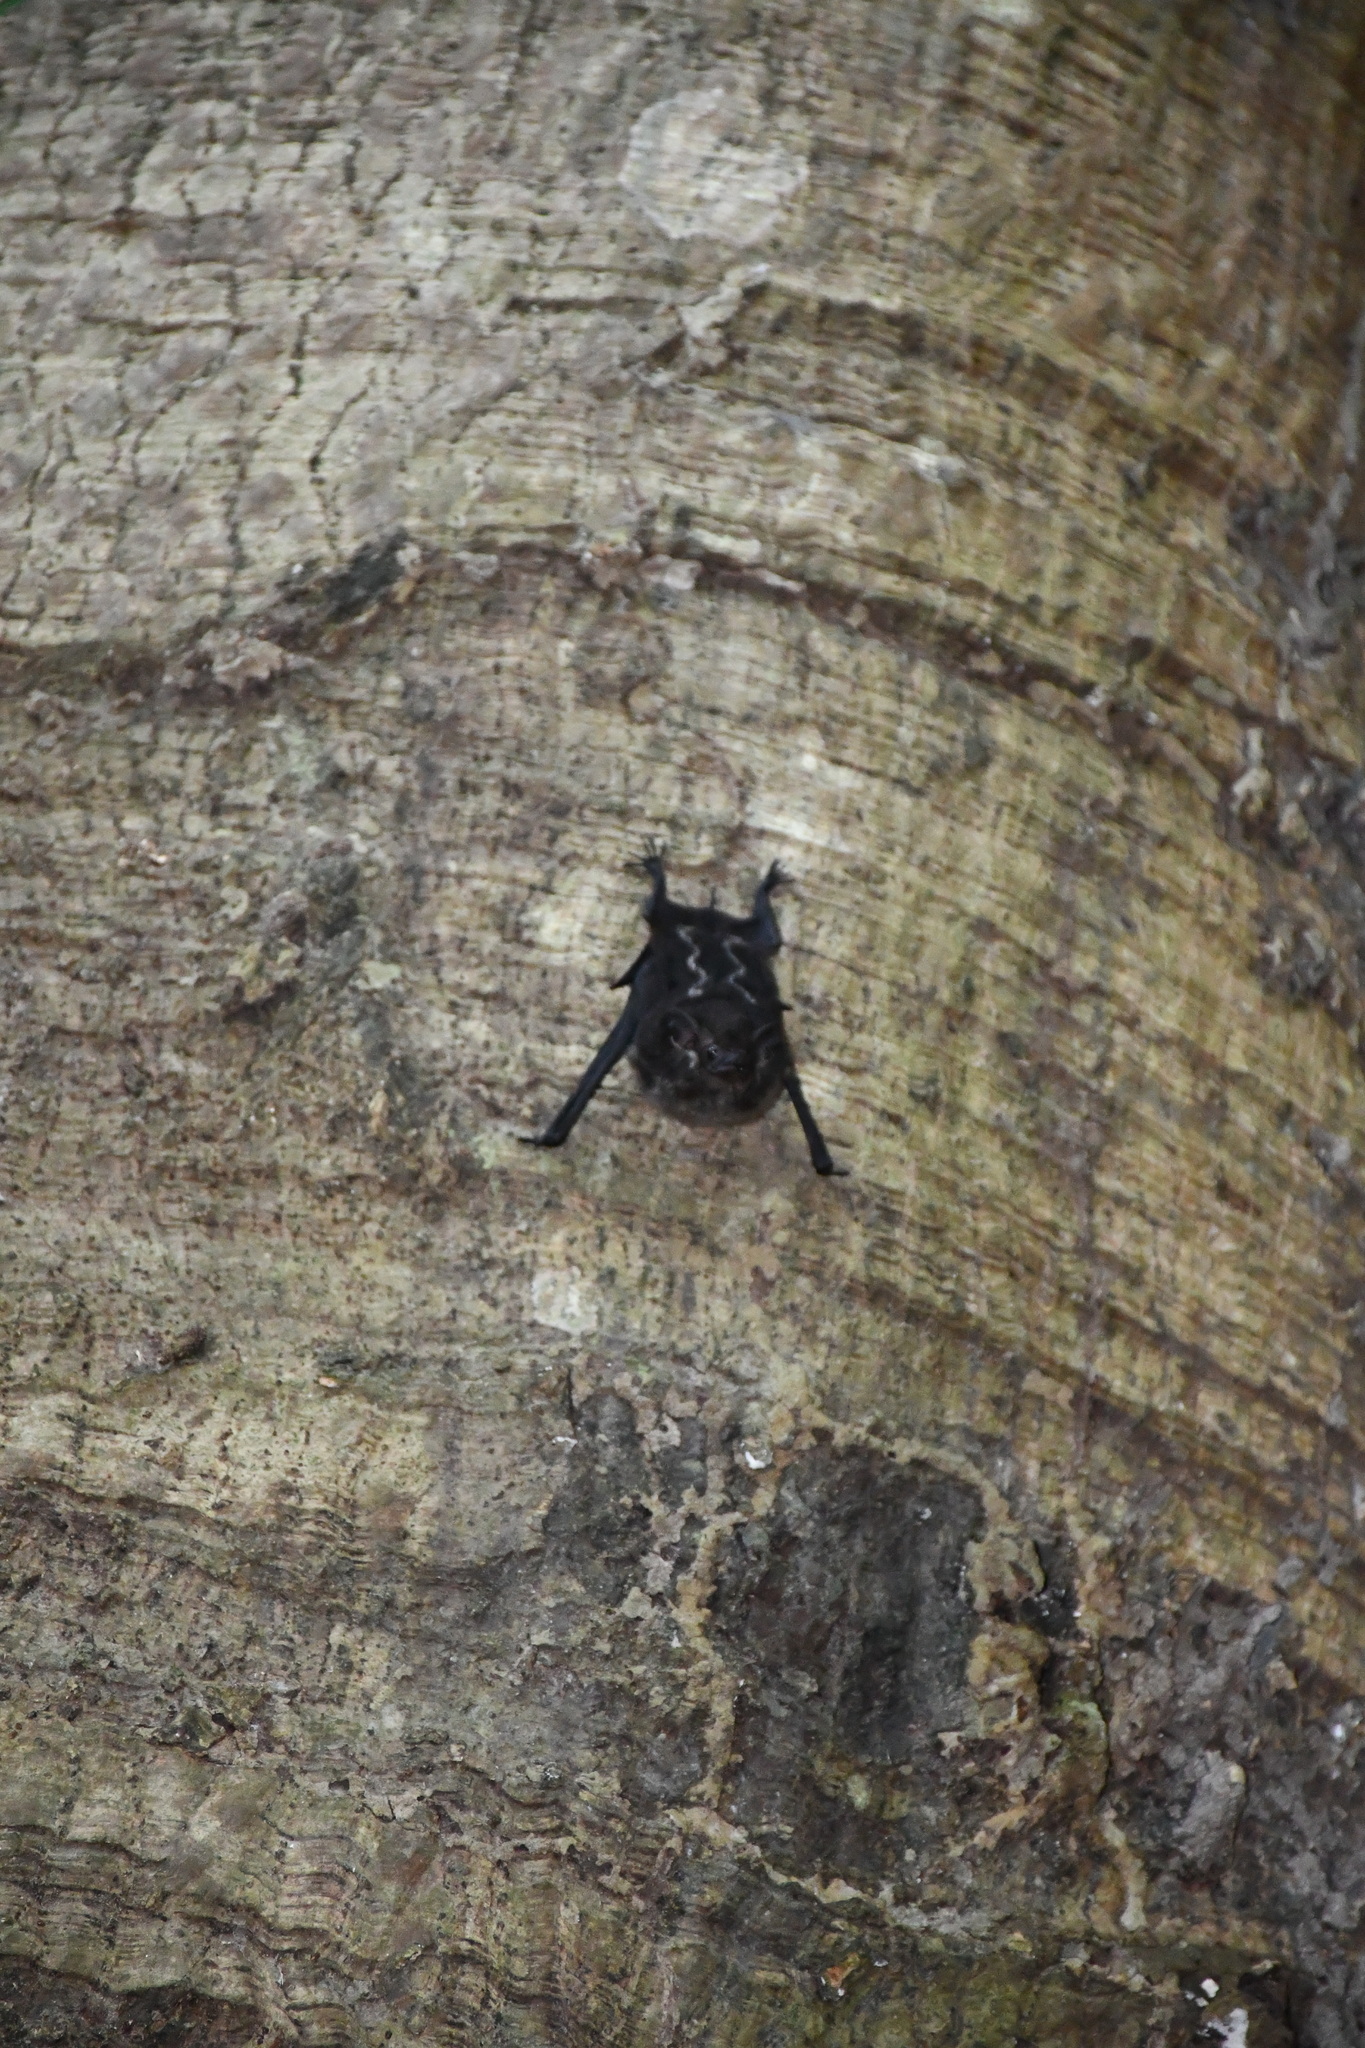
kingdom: Animalia
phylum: Chordata
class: Mammalia
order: Chiroptera
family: Emballonuridae
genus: Saccopteryx
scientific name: Saccopteryx bilineata
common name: Greater sac-winged bat
